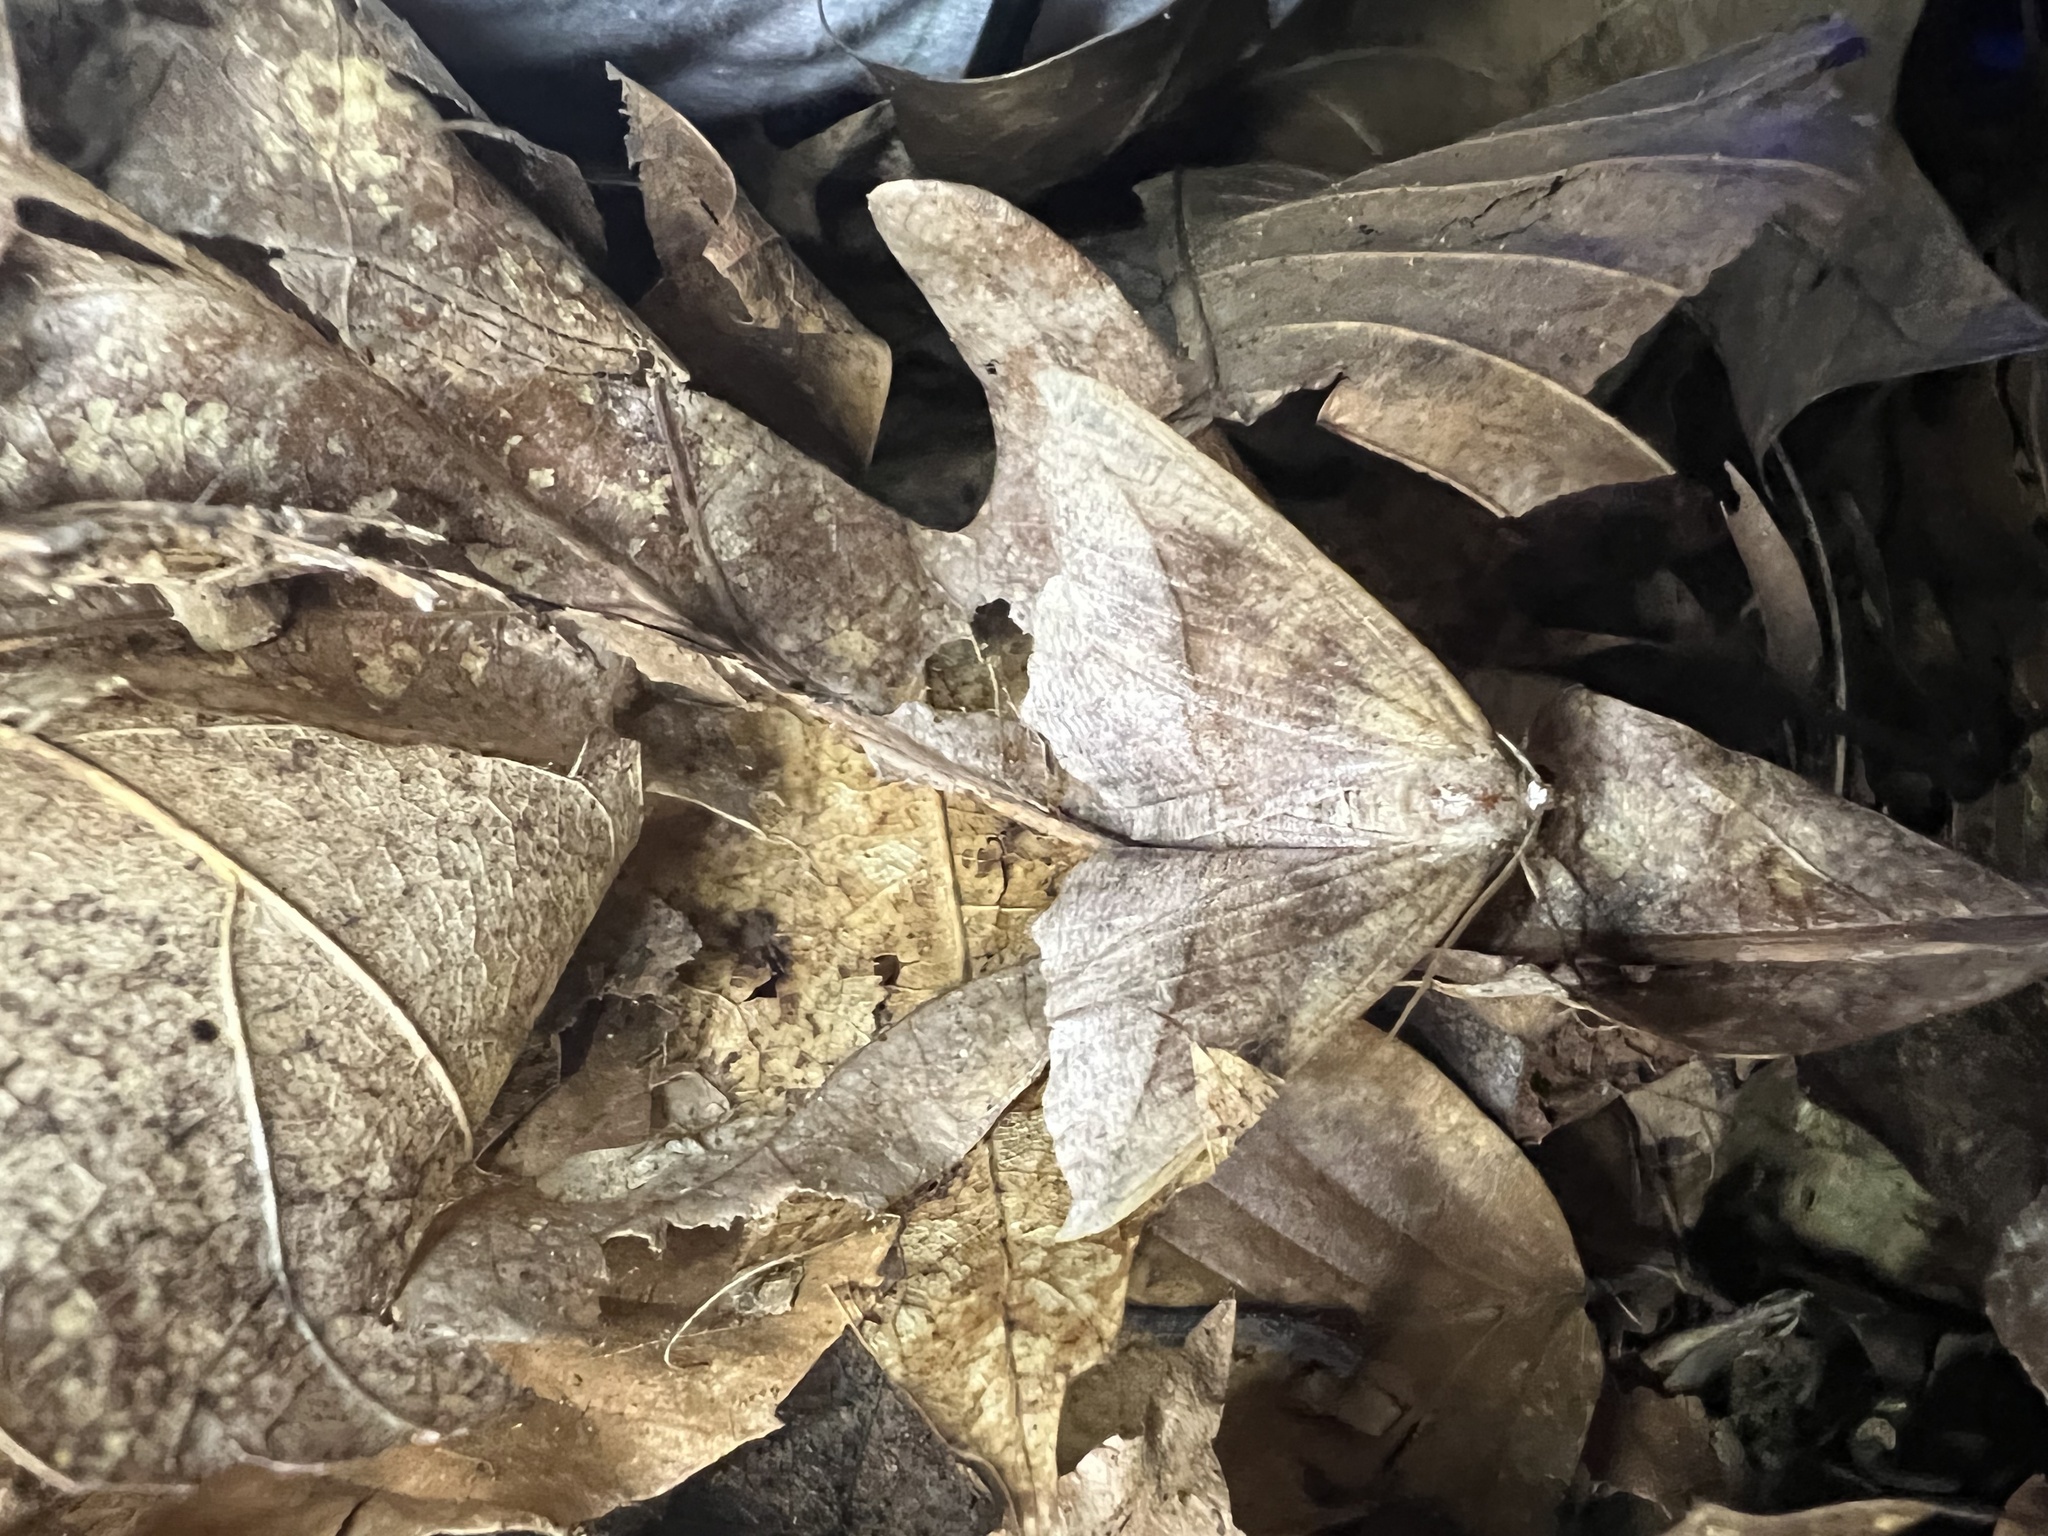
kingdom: Animalia
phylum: Arthropoda
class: Insecta
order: Lepidoptera
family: Geometridae
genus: Eutrapela
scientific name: Eutrapela clemataria
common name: Curved-toothed geometer
